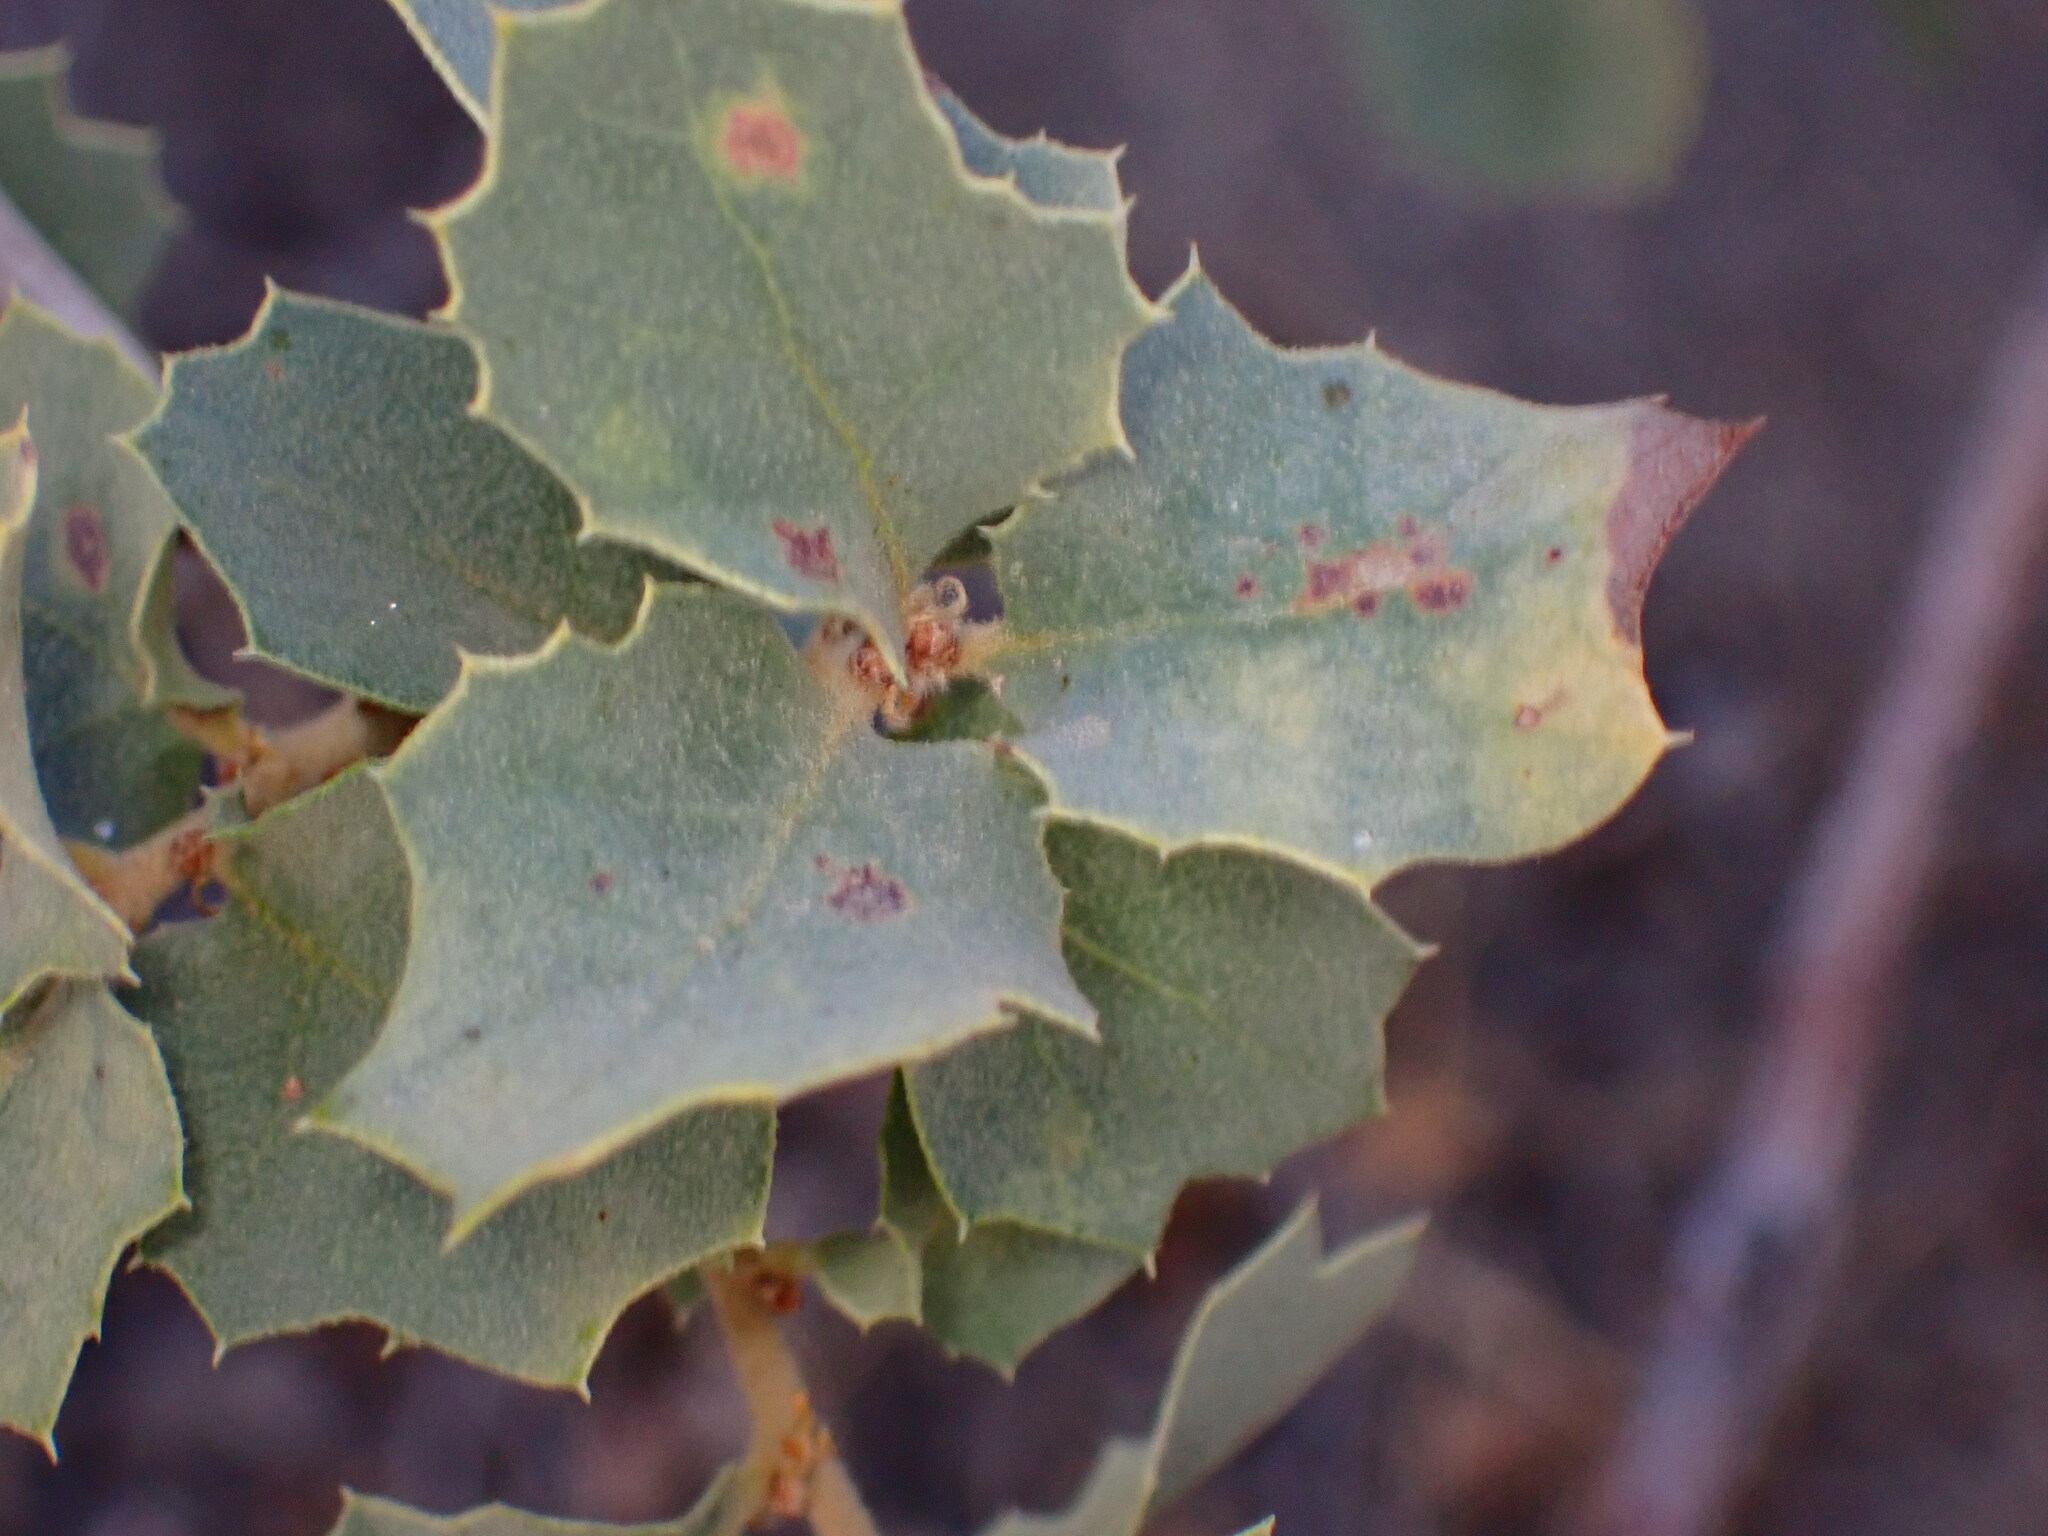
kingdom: Plantae
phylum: Tracheophyta
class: Magnoliopsida
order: Fagales
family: Fagaceae
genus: Quercus
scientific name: Quercus john-tuckeri
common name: Tucker's oak
